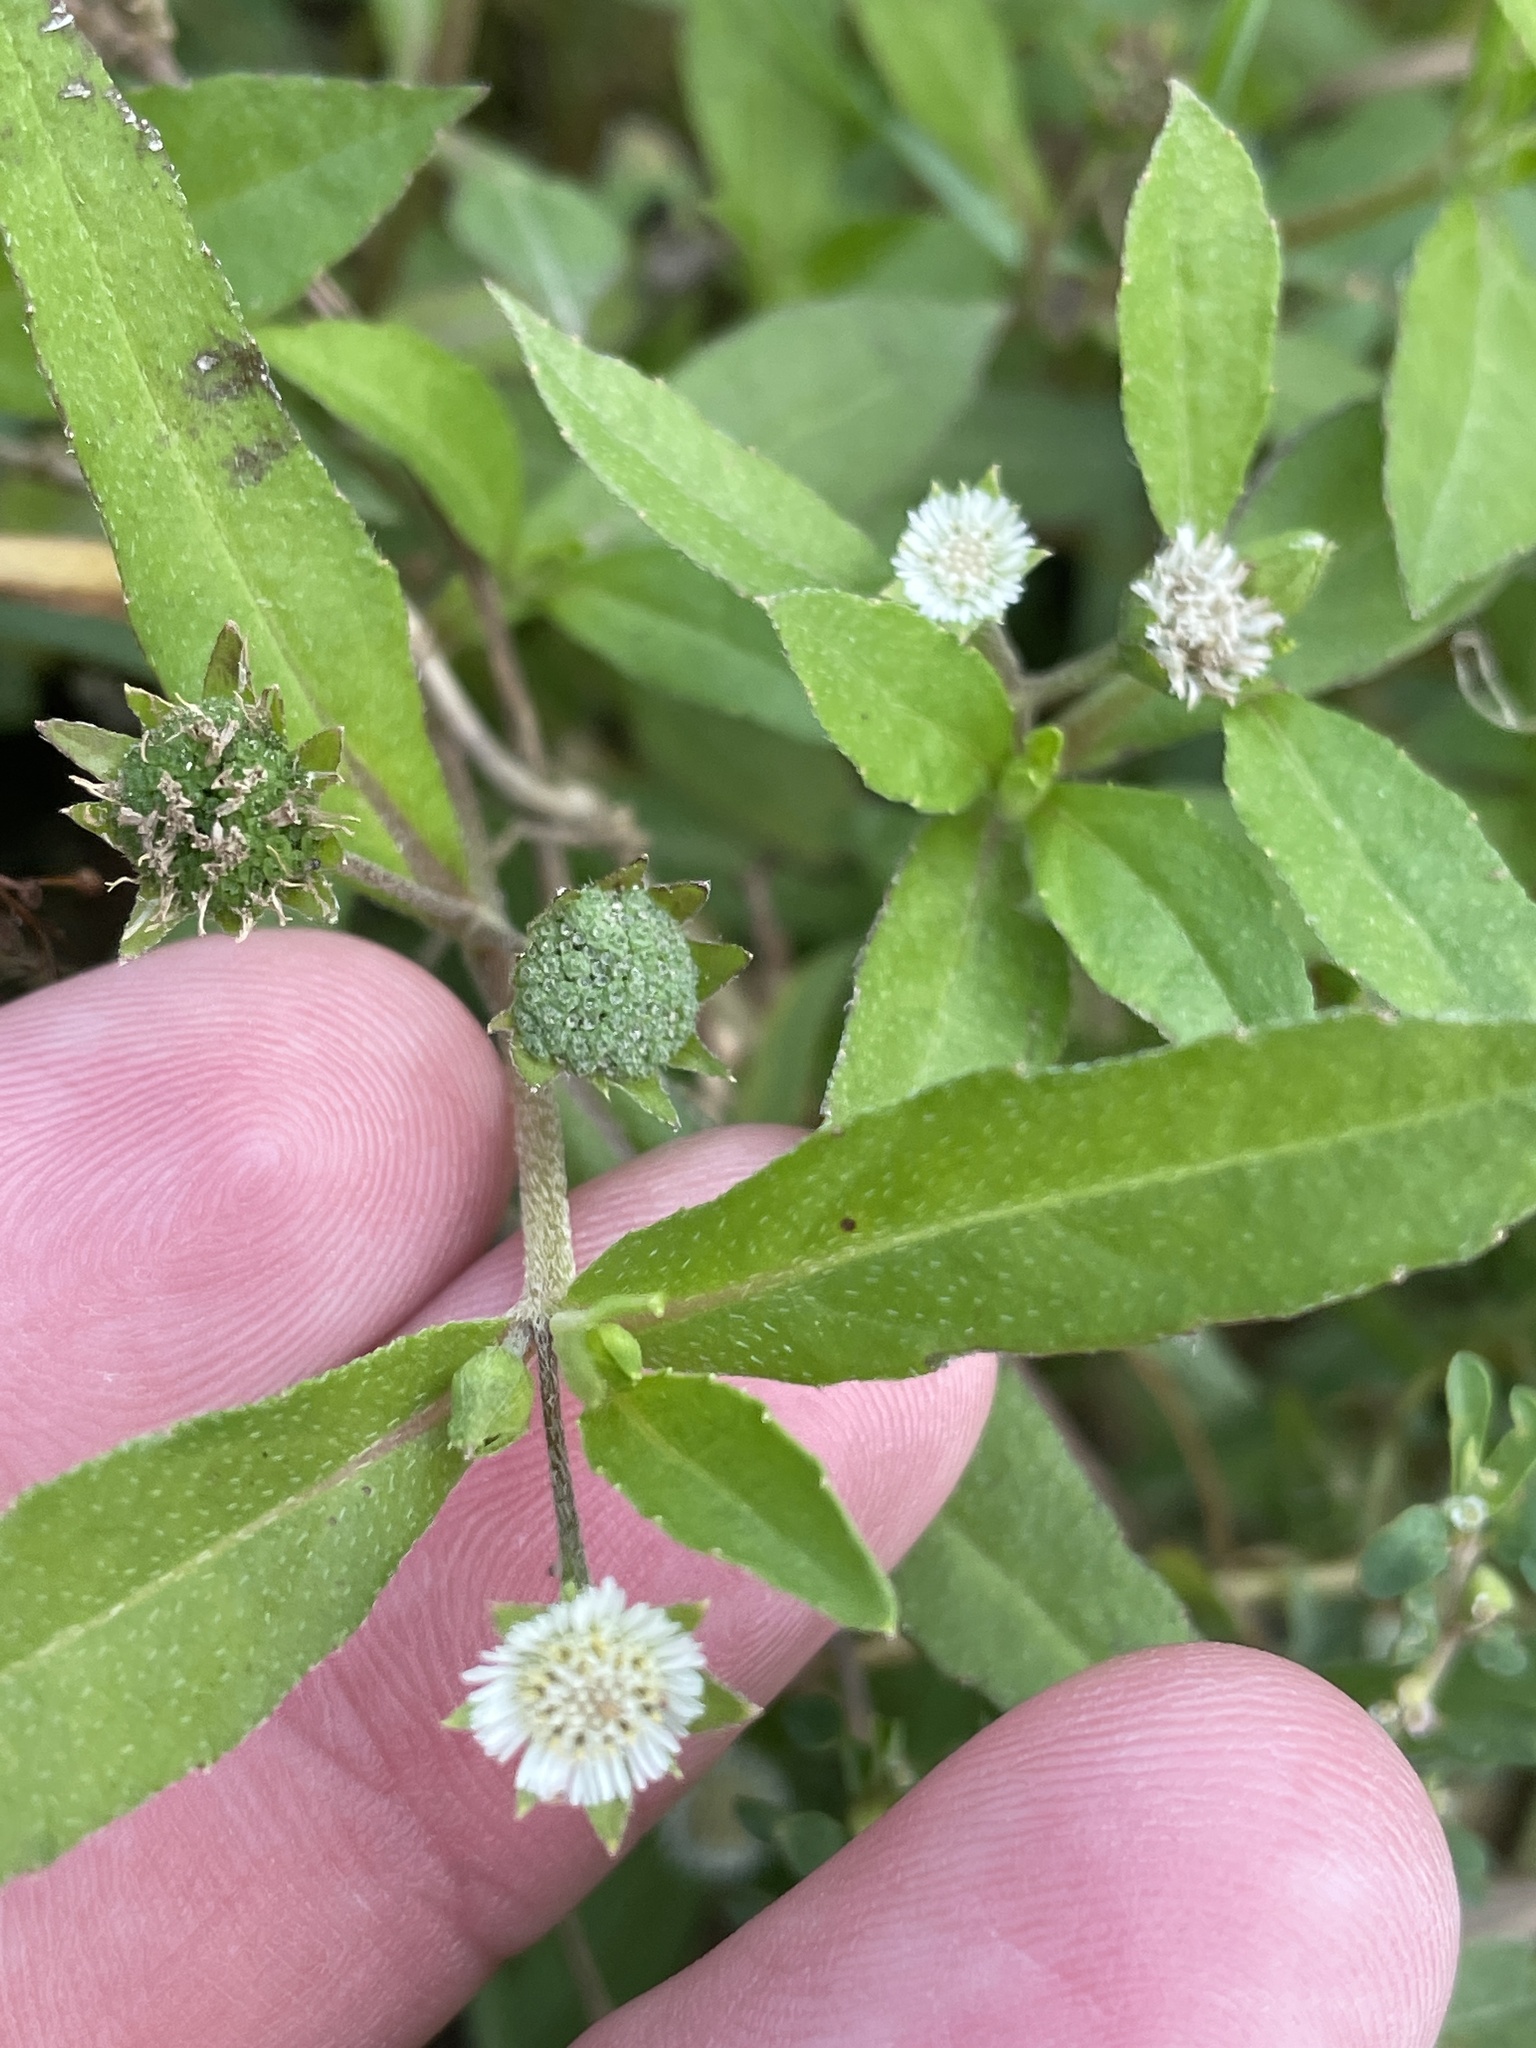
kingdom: Plantae
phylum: Tracheophyta
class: Magnoliopsida
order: Asterales
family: Asteraceae
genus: Eclipta
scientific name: Eclipta prostrata
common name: False daisy
